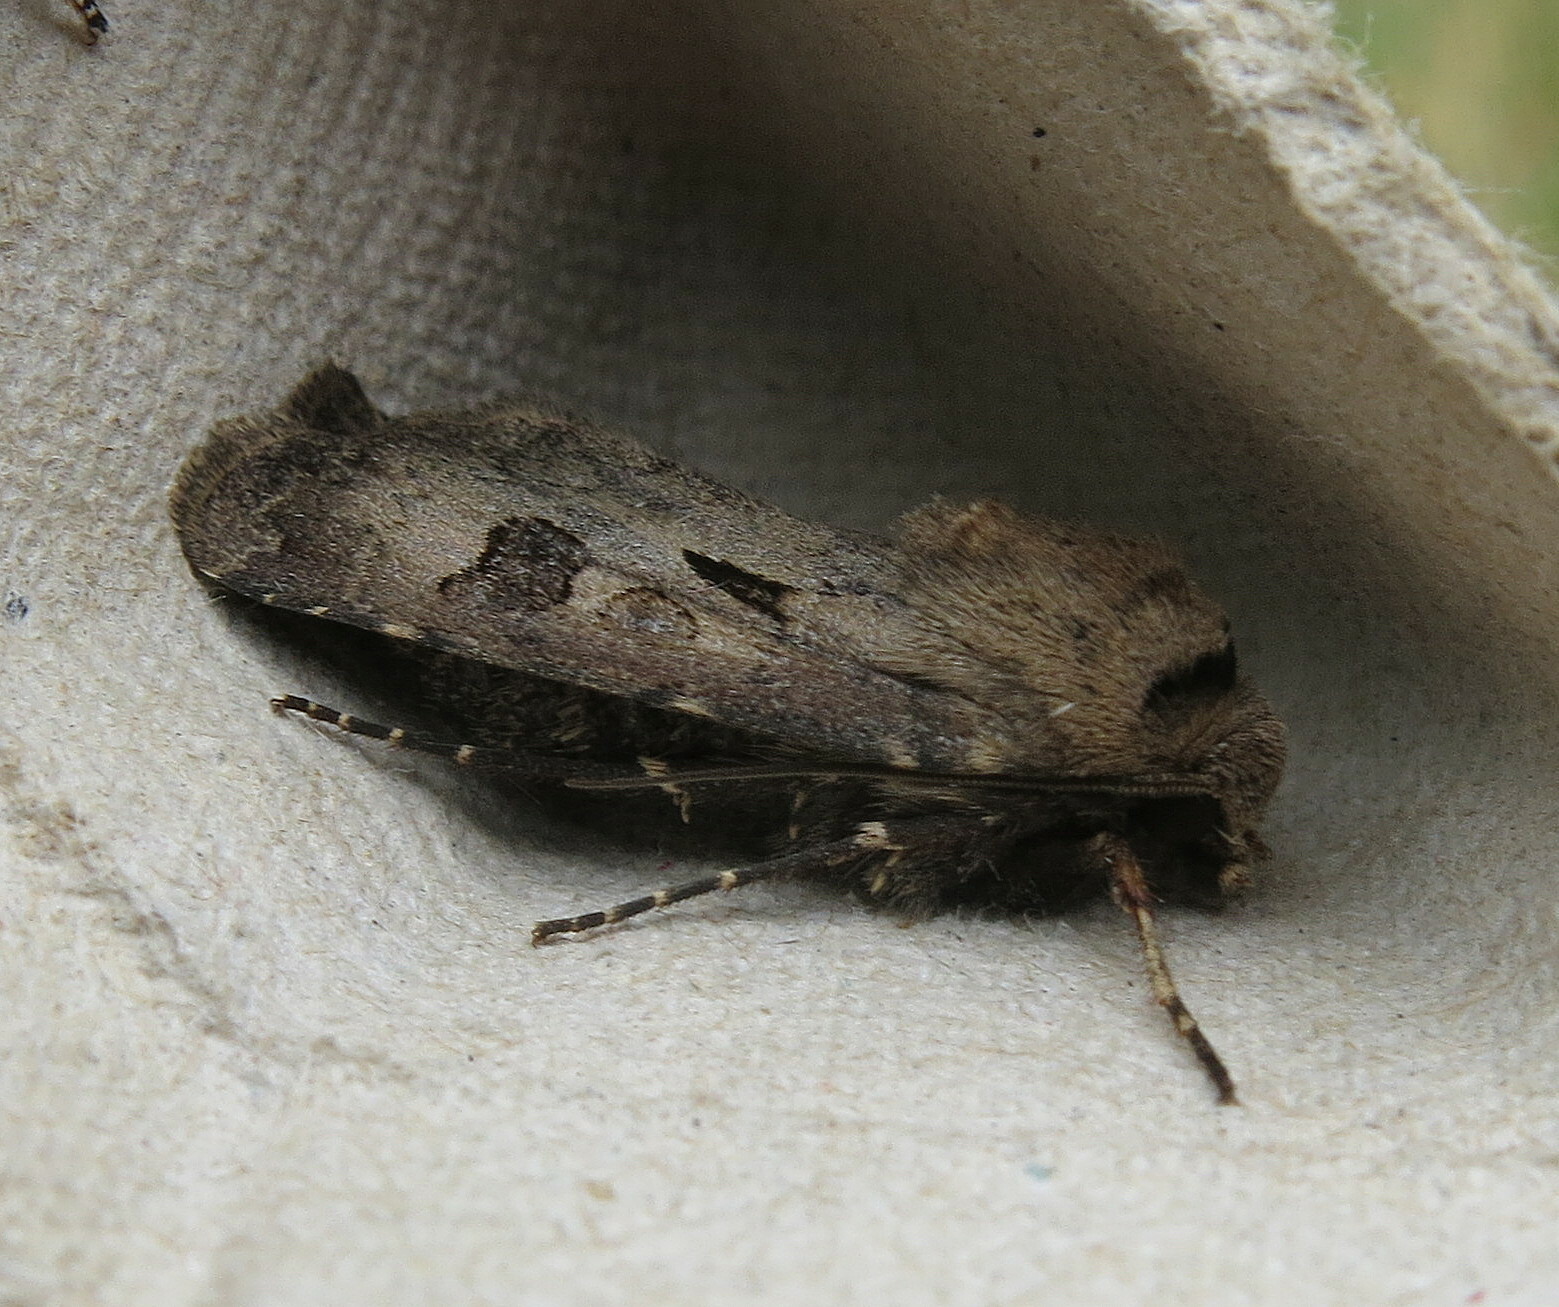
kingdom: Animalia
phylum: Arthropoda
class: Insecta
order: Lepidoptera
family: Noctuidae
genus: Agrotis
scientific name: Agrotis exclamationis
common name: Heart and dart
